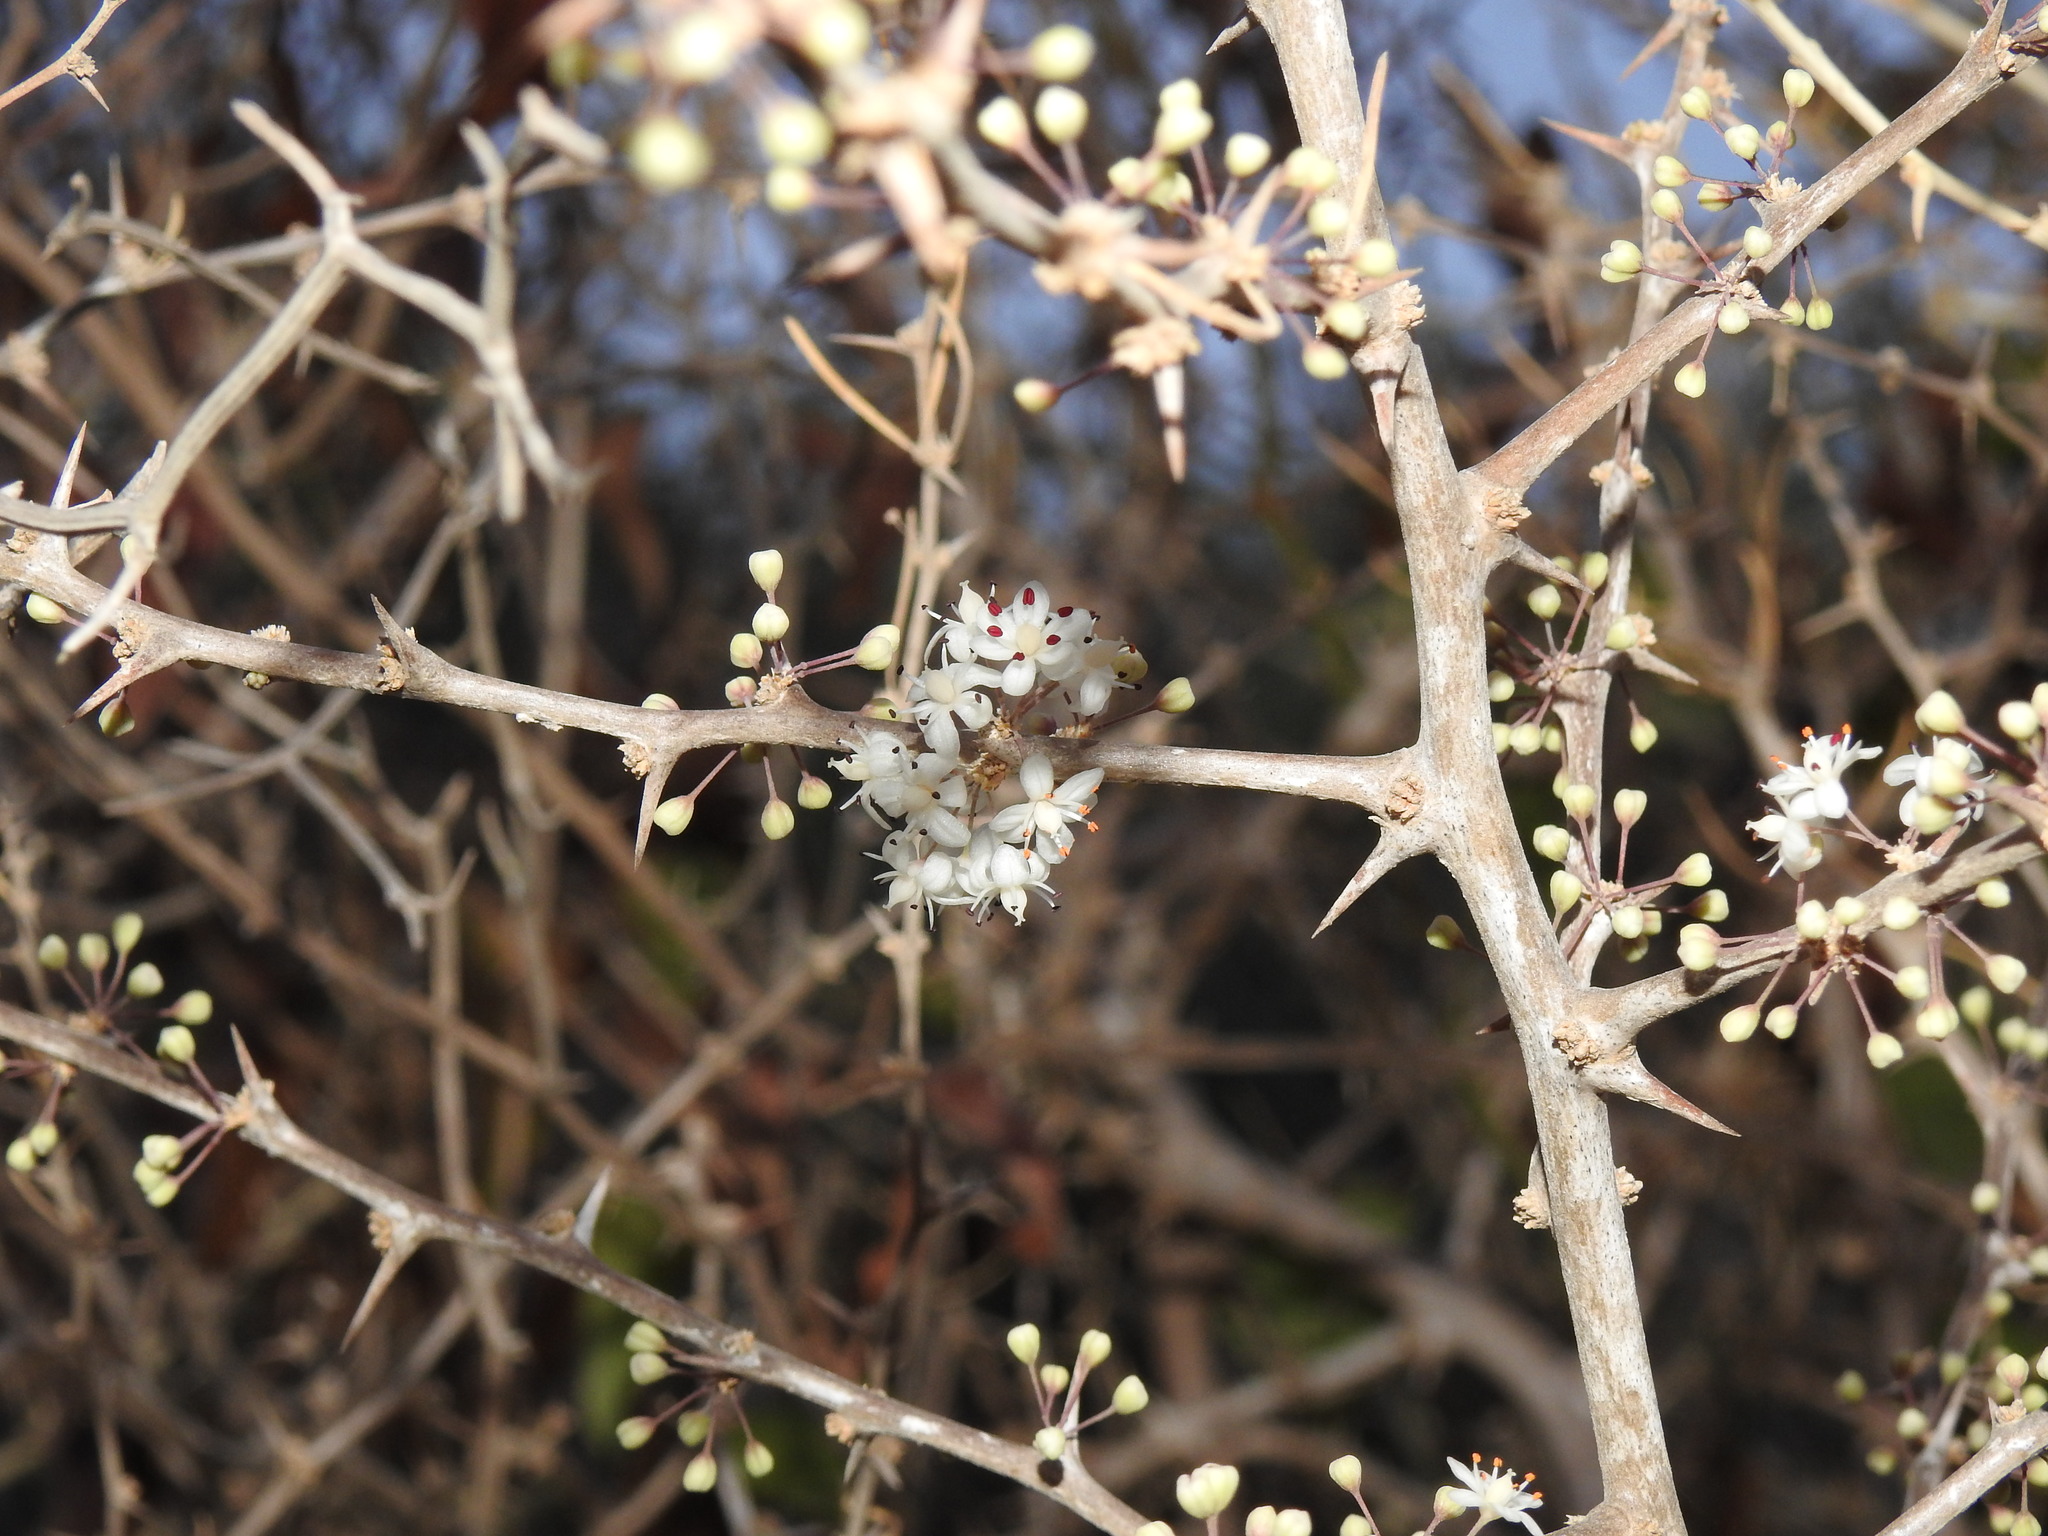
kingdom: Plantae
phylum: Tracheophyta
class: Liliopsida
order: Asparagales
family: Asparagaceae
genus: Asparagus
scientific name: Asparagus albus
